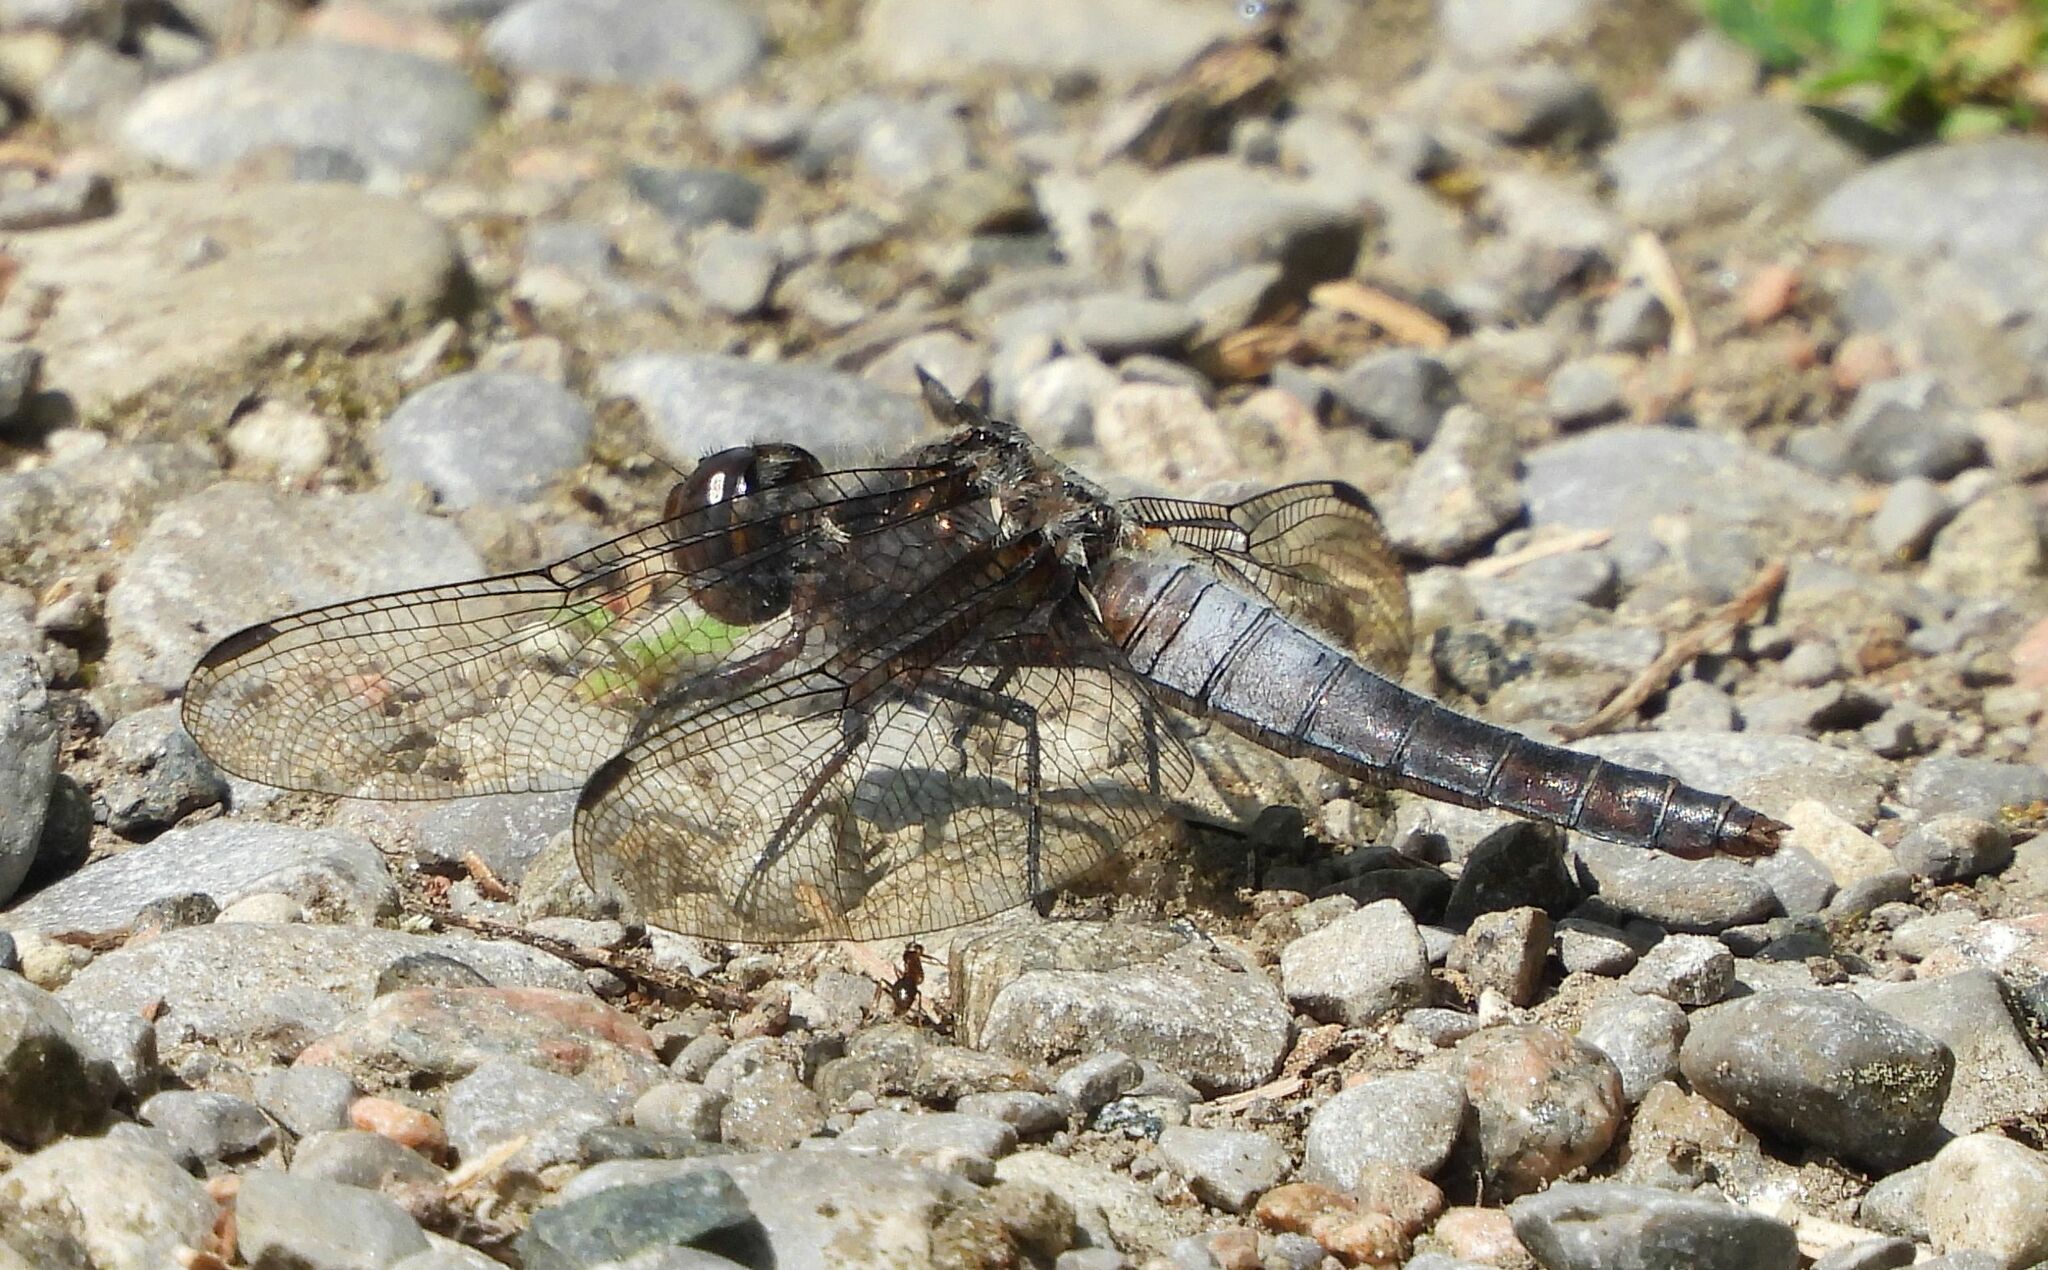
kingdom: Animalia
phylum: Arthropoda
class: Insecta
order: Odonata
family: Libellulidae
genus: Ladona
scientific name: Ladona julia
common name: Chalk-fronted corporal
